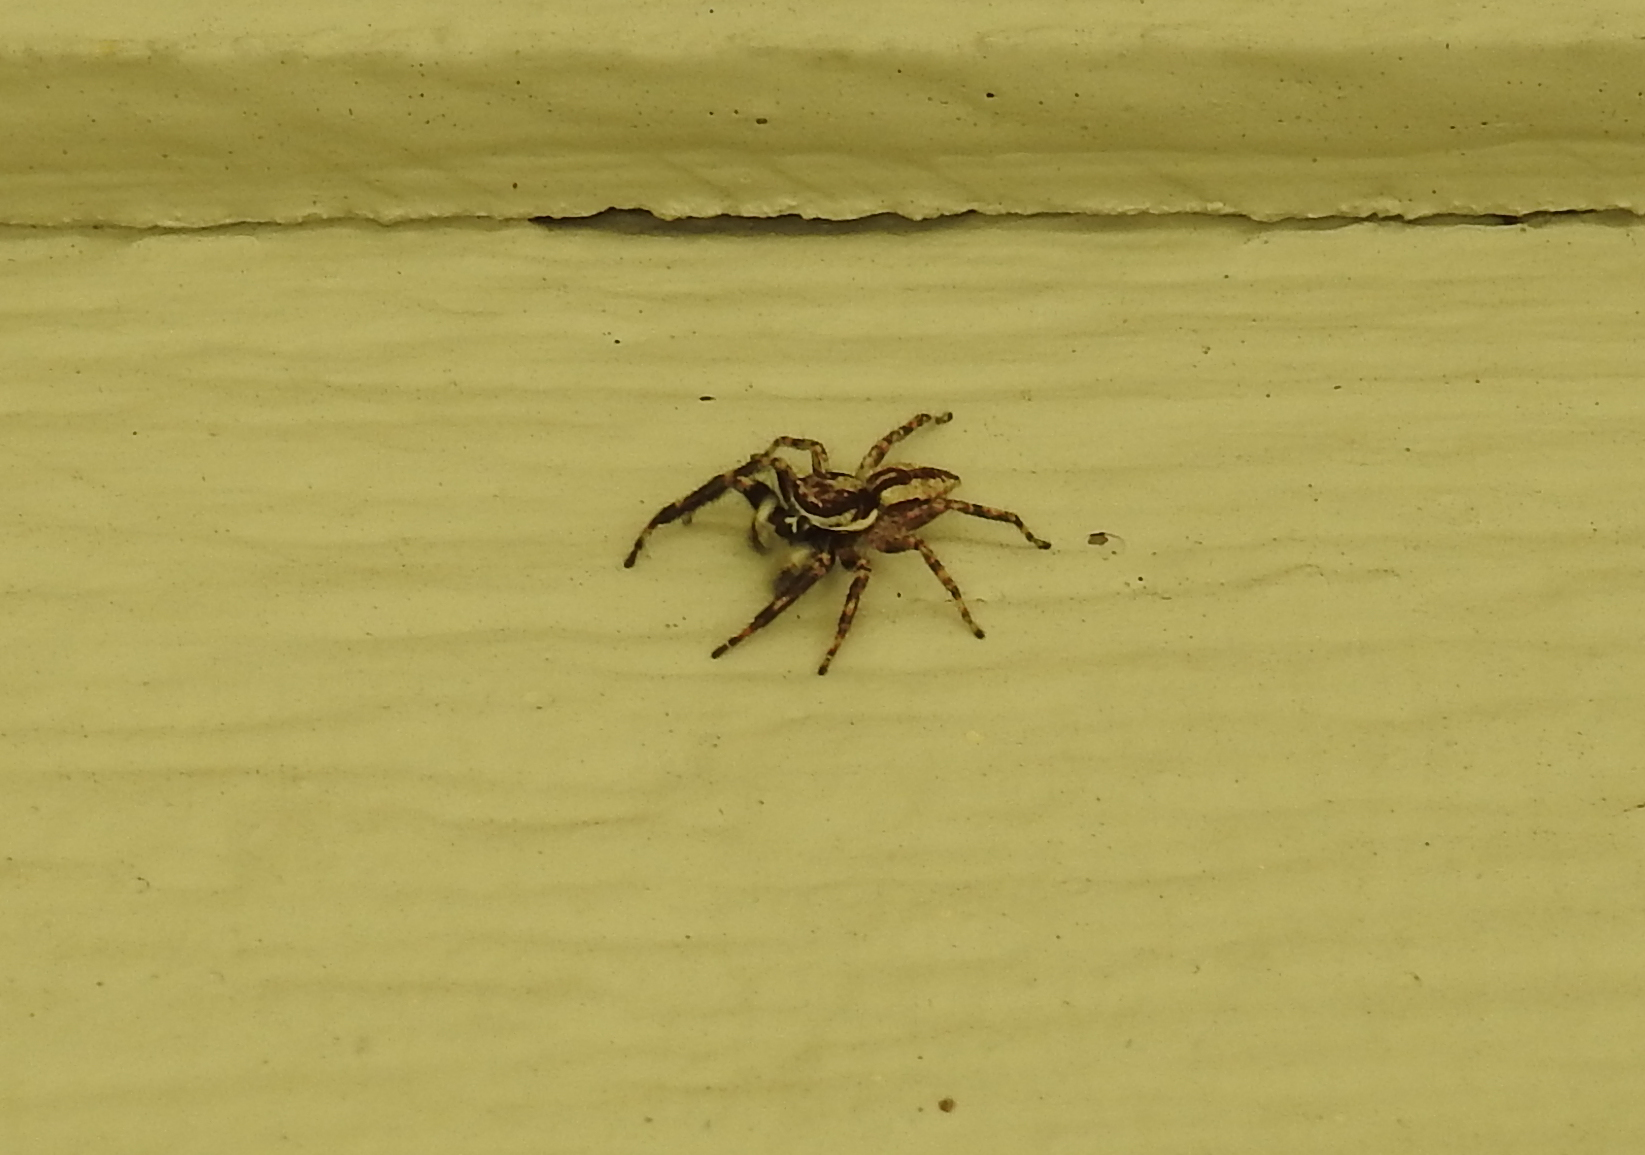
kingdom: Animalia
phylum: Arthropoda
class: Arachnida
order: Araneae
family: Salticidae
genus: Menemerus
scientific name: Menemerus bivittatus
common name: Gray wall jumper
